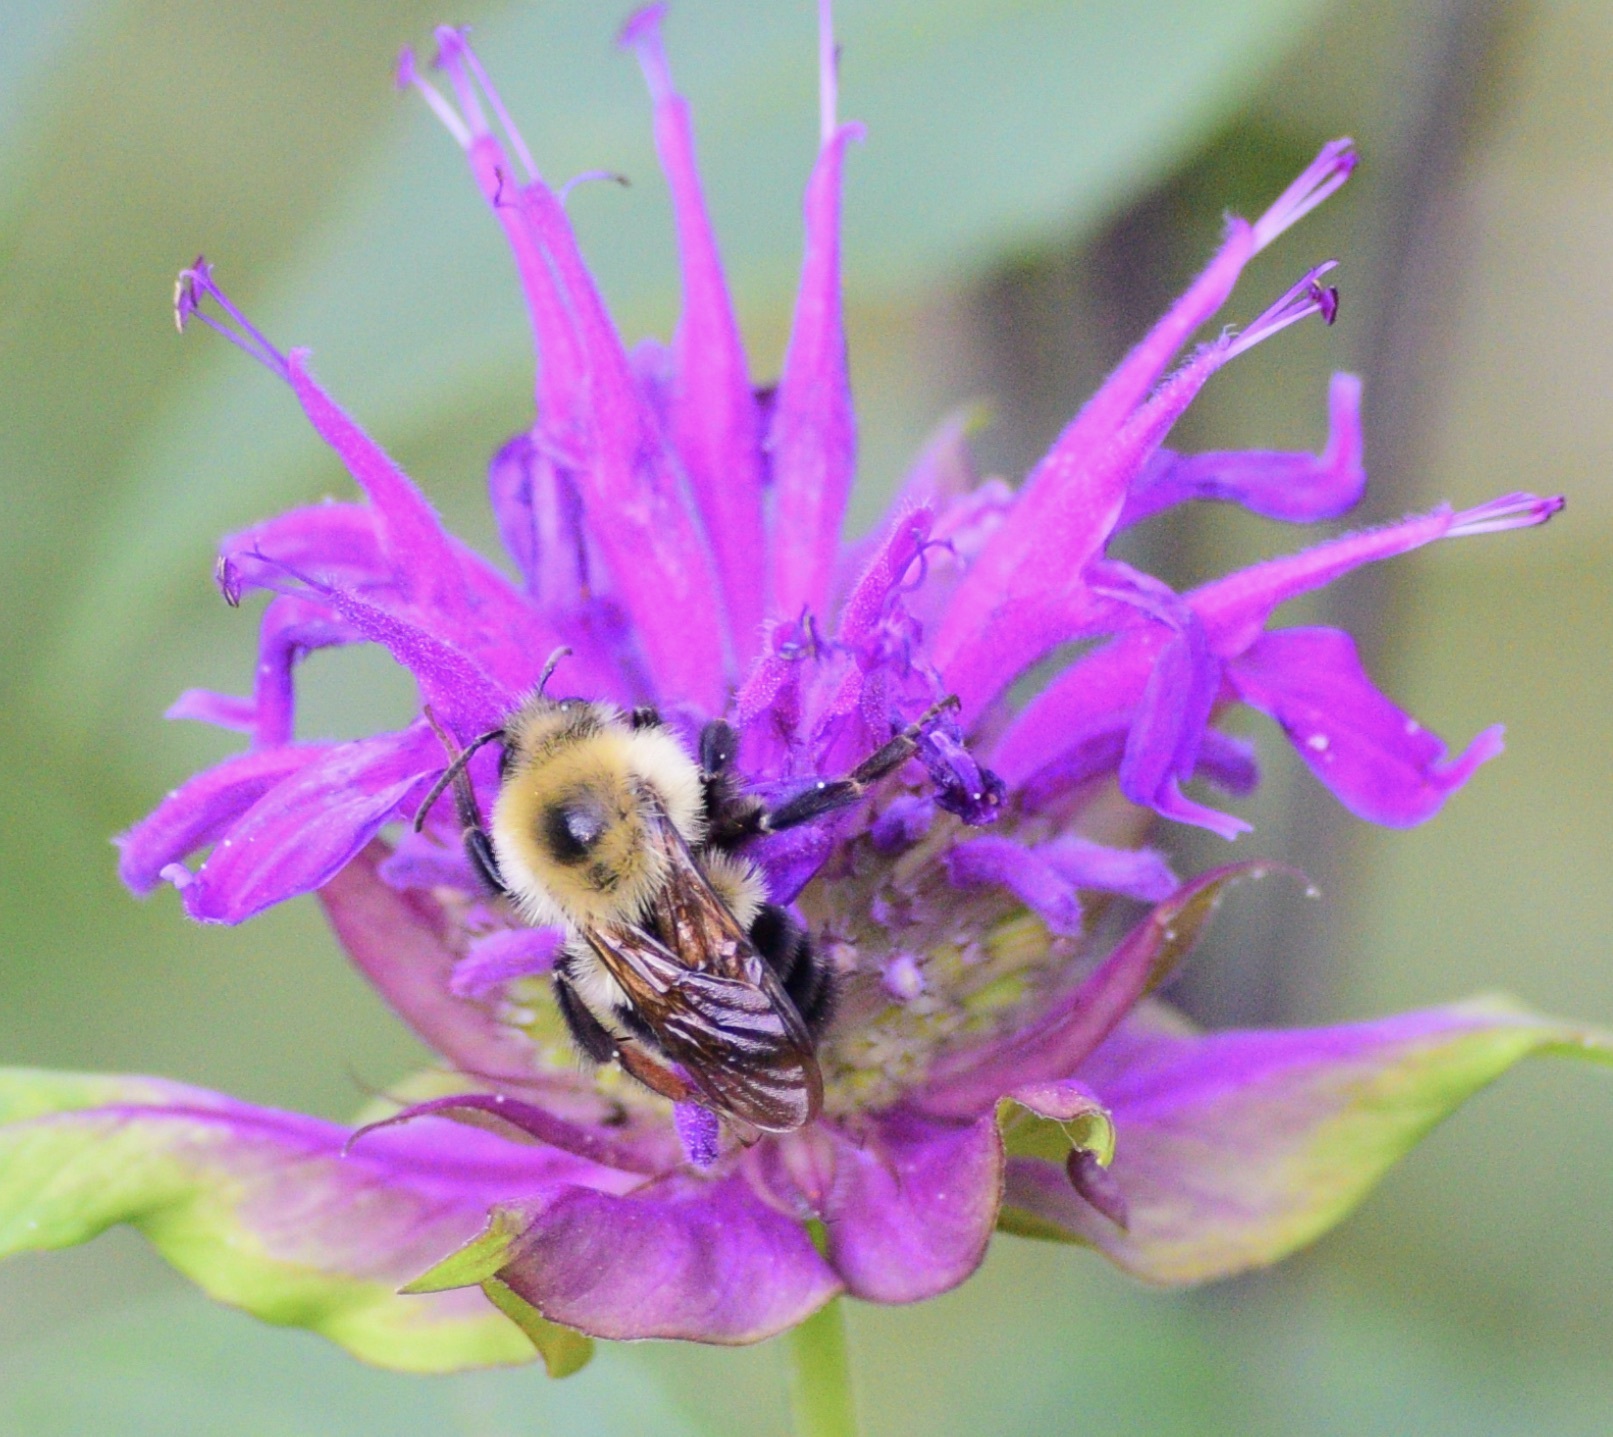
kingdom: Animalia
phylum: Arthropoda
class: Insecta
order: Hymenoptera
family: Apidae
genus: Bombus
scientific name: Bombus bimaculatus
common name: Two-spotted bumble bee
